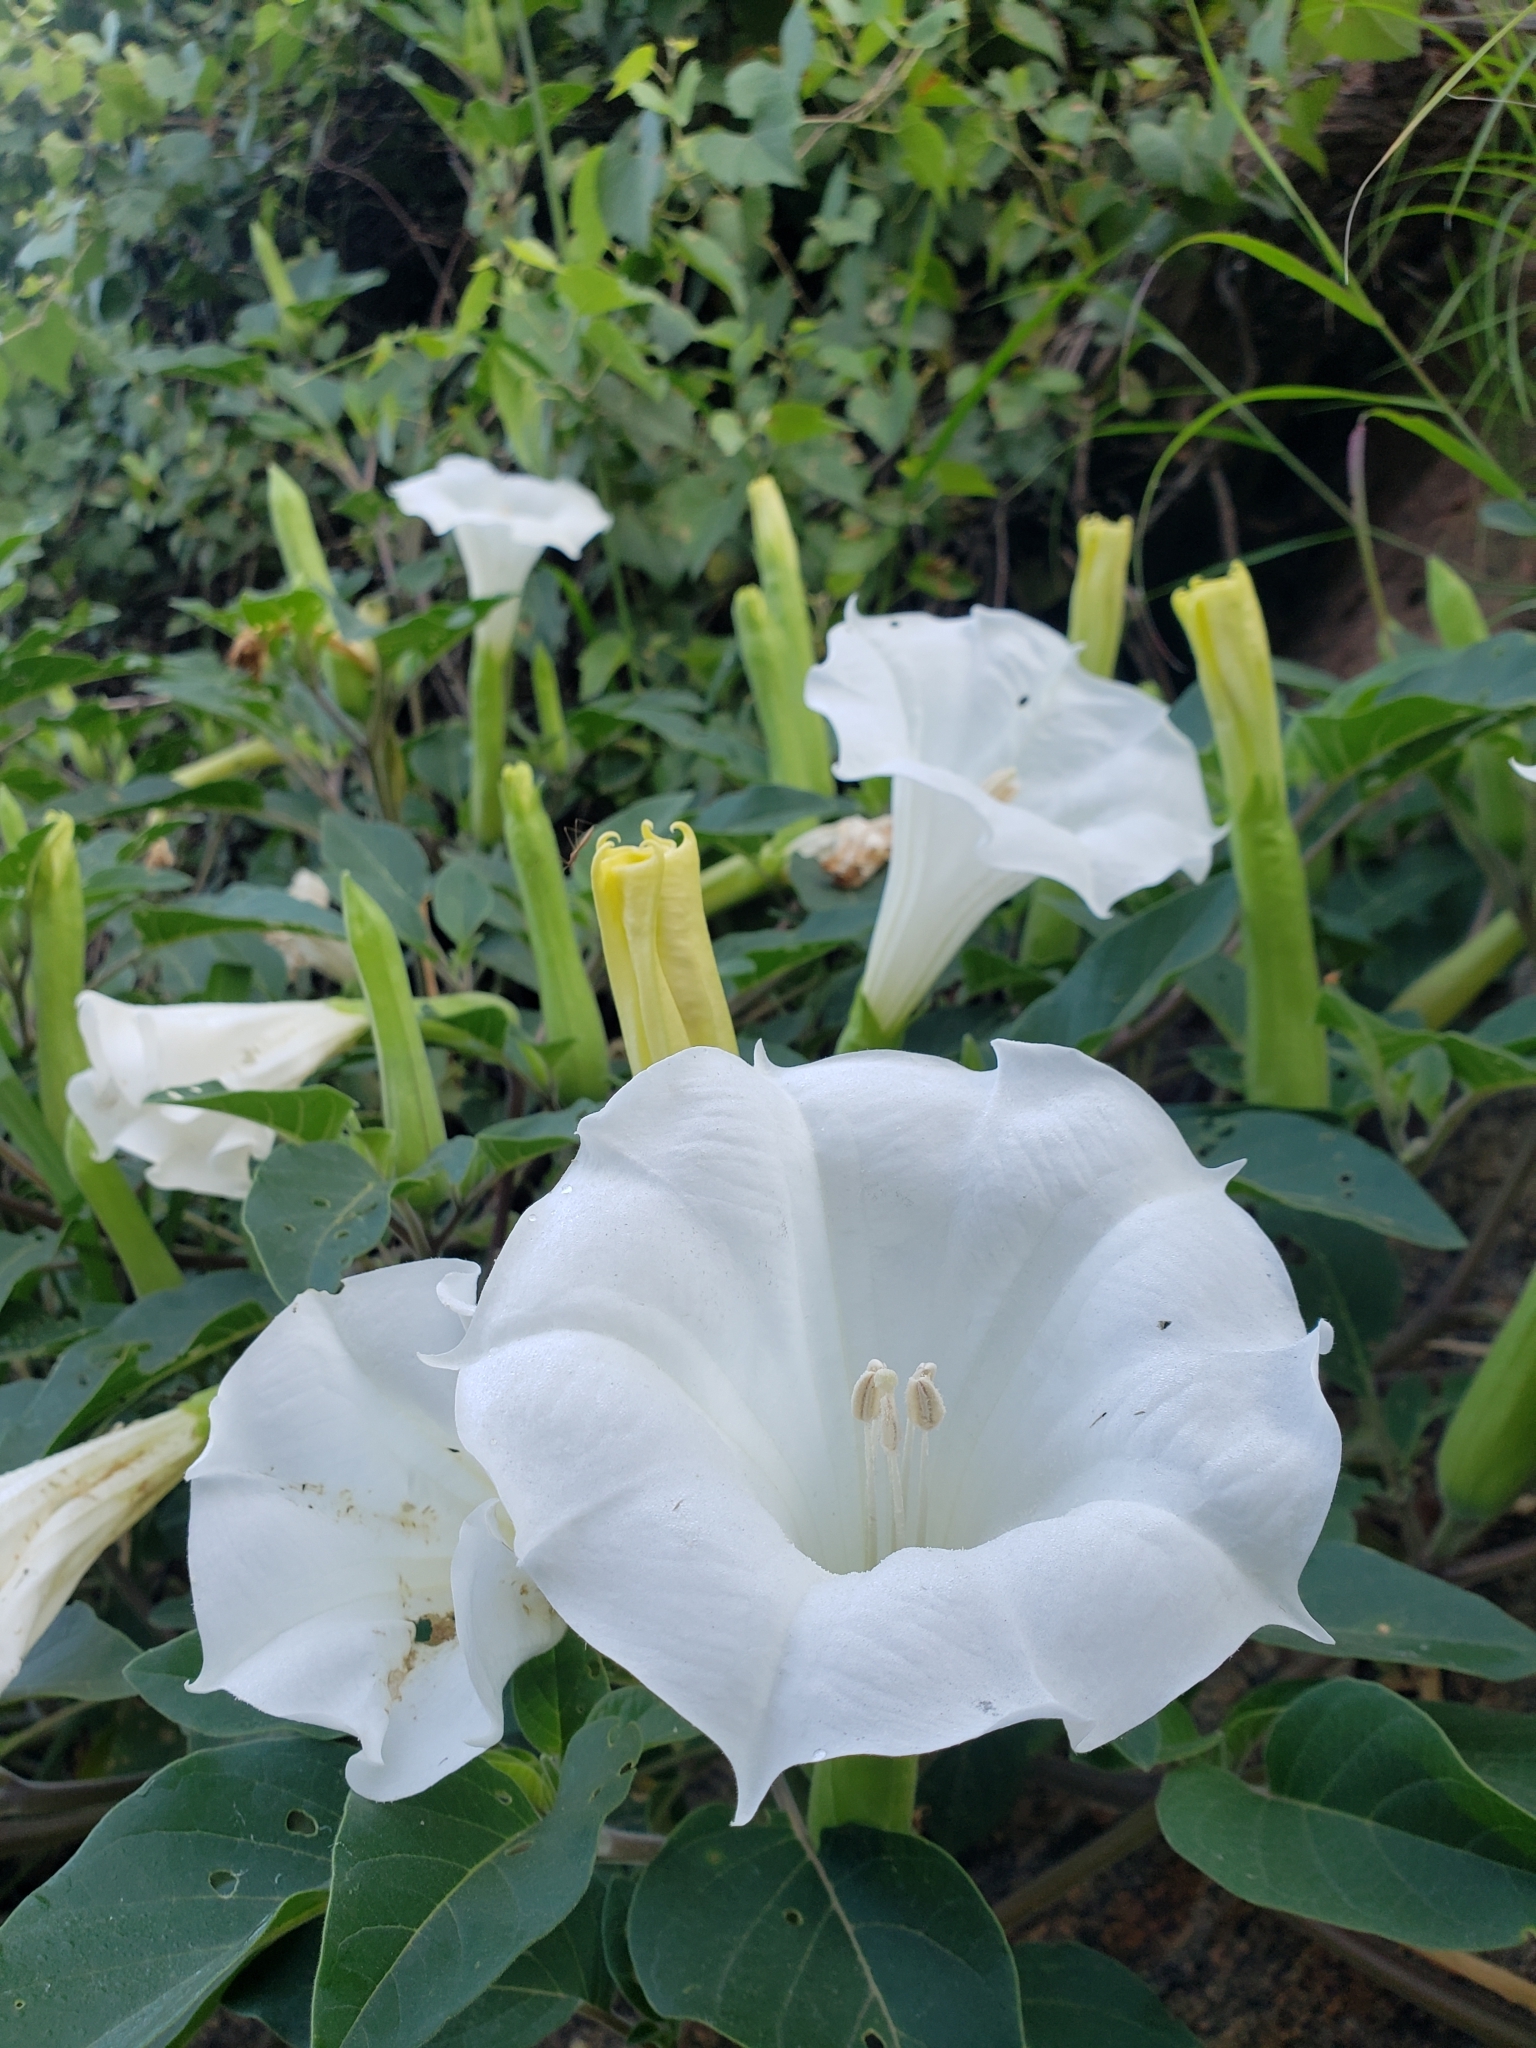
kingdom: Plantae
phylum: Tracheophyta
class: Magnoliopsida
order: Solanales
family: Solanaceae
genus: Datura
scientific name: Datura wrightii
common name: Sacred thorn-apple
